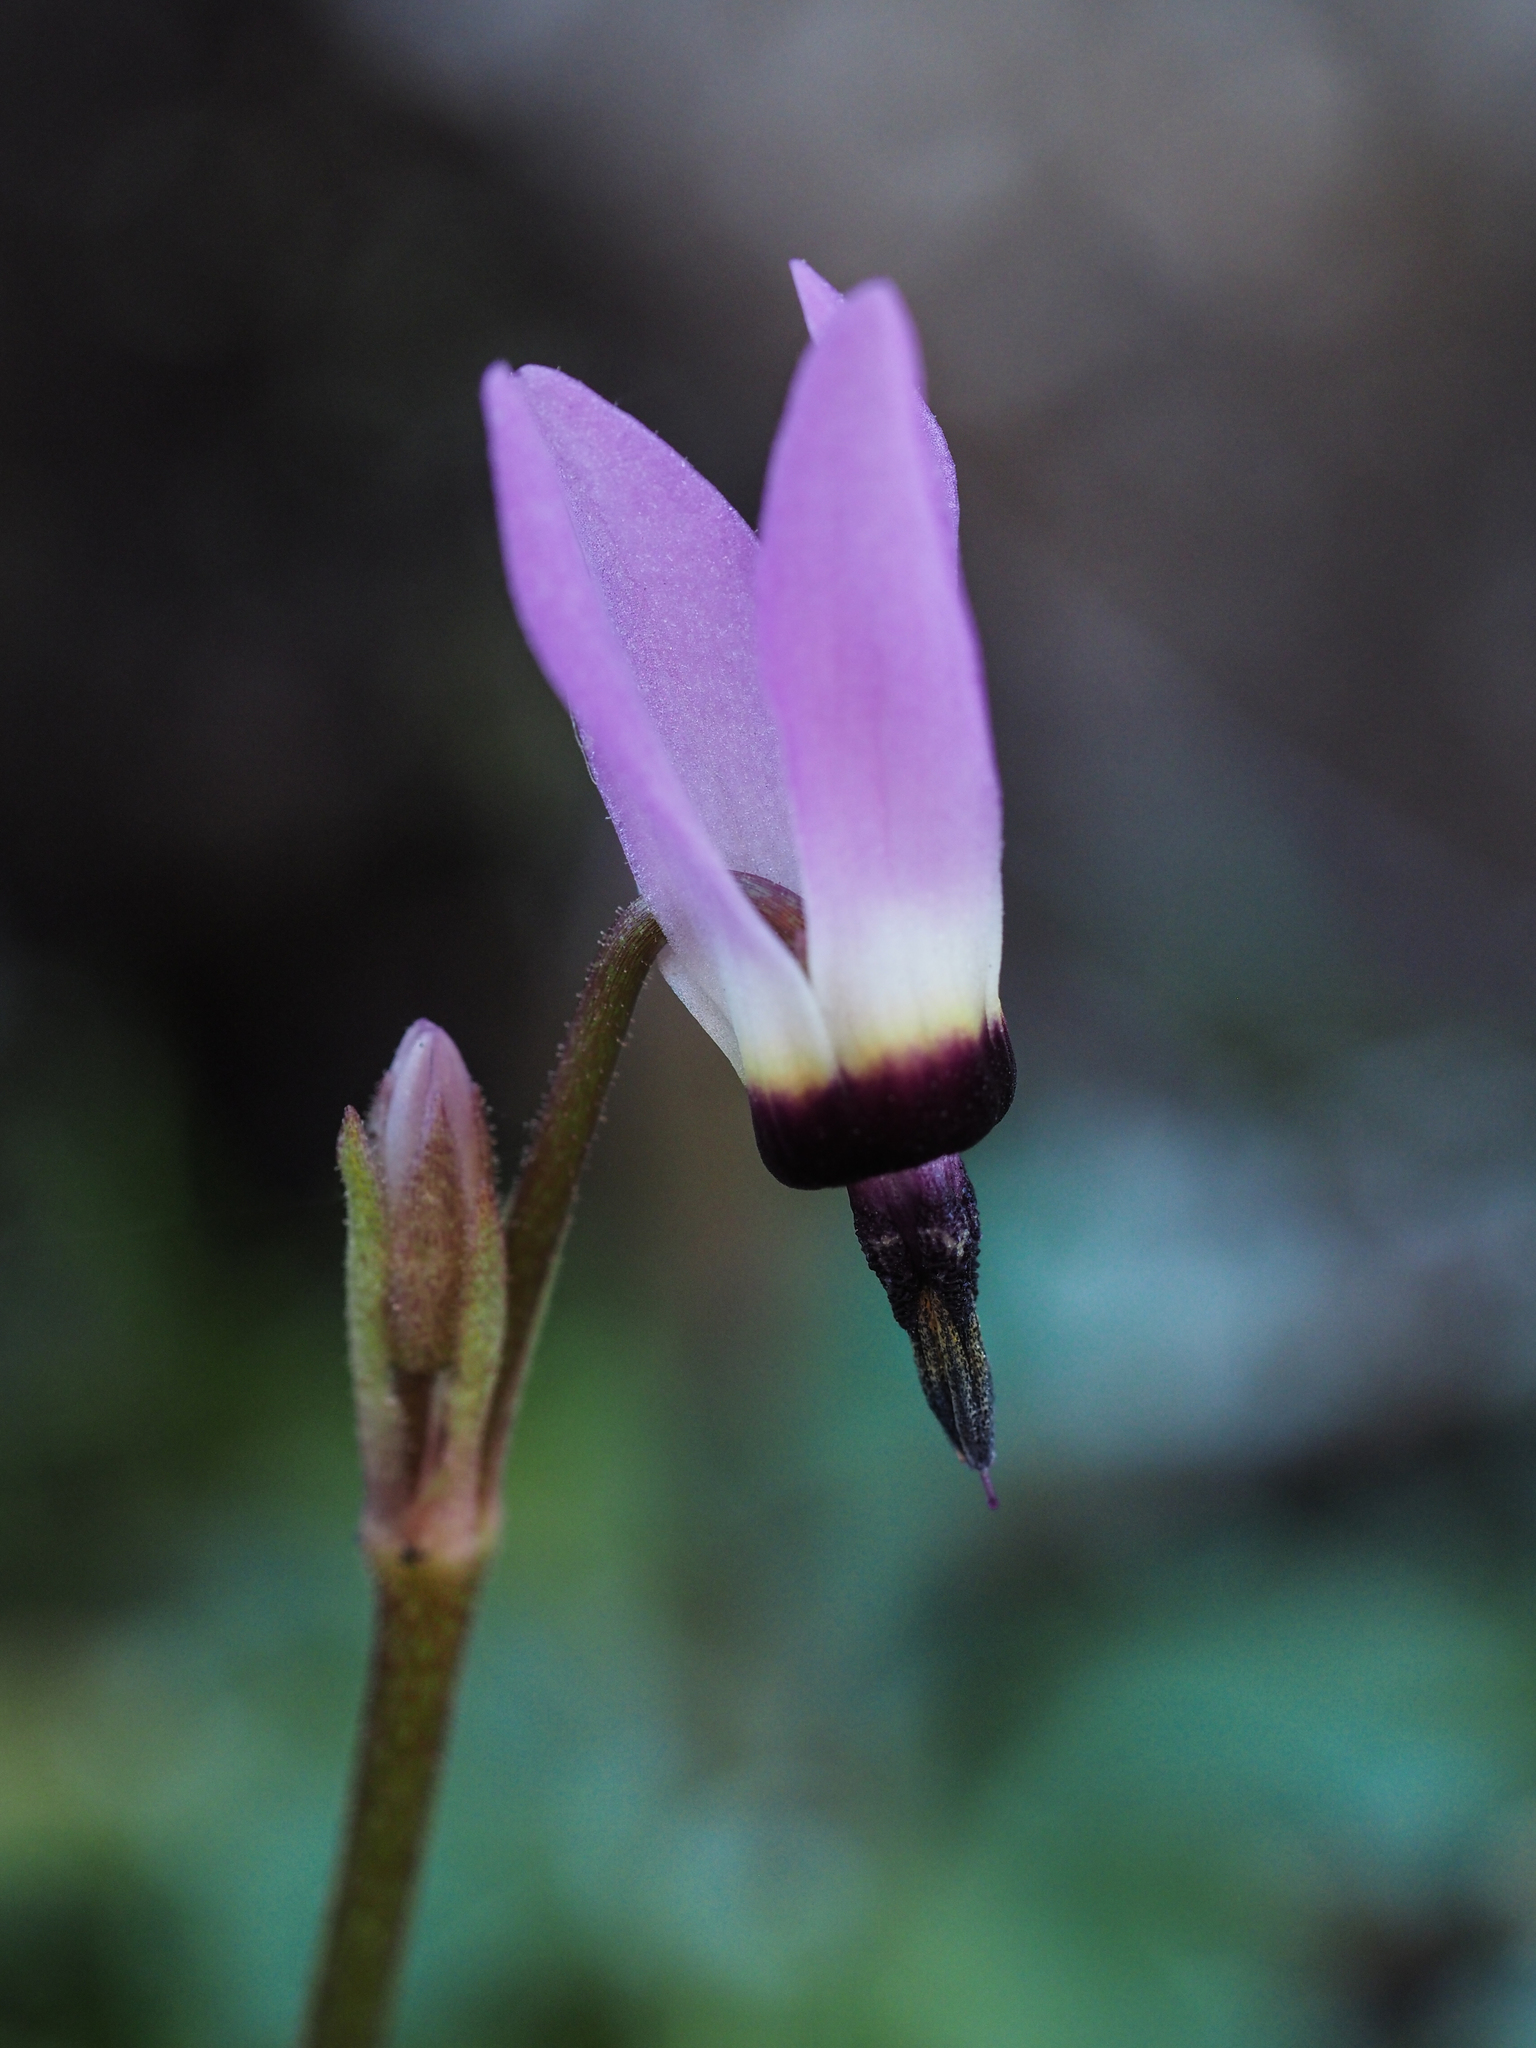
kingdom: Plantae
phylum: Tracheophyta
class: Magnoliopsida
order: Ericales
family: Primulaceae
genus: Dodecatheon
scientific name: Dodecatheon hendersonii
